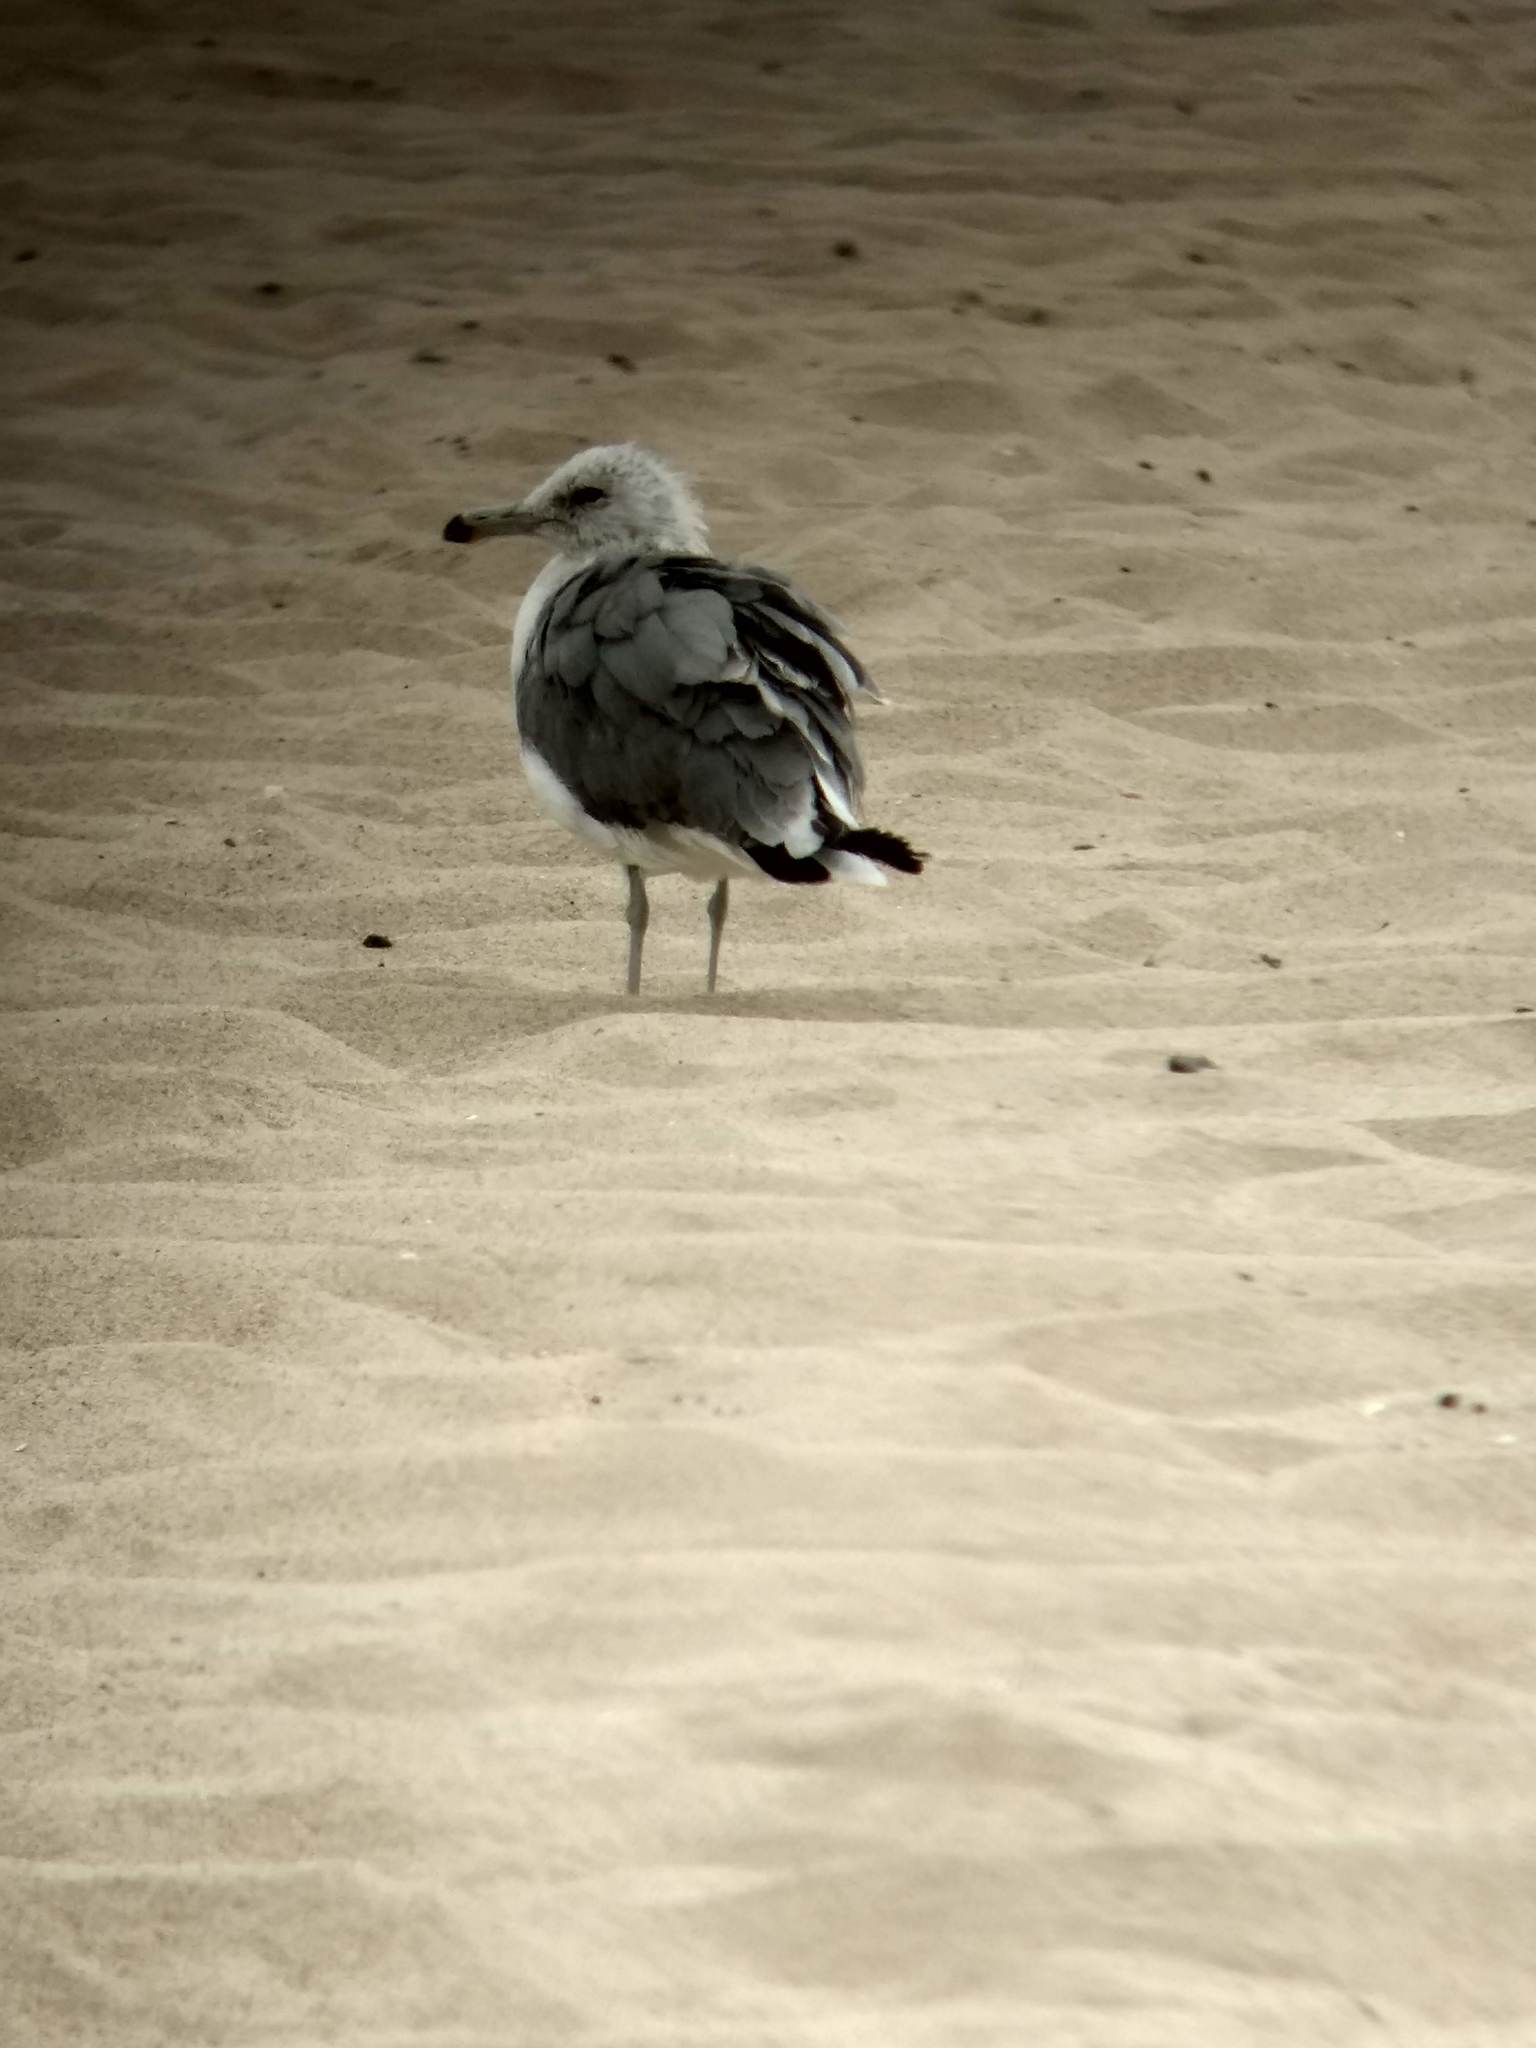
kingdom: Animalia
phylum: Chordata
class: Aves
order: Charadriiformes
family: Laridae
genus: Larus
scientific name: Larus californicus
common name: California gull
